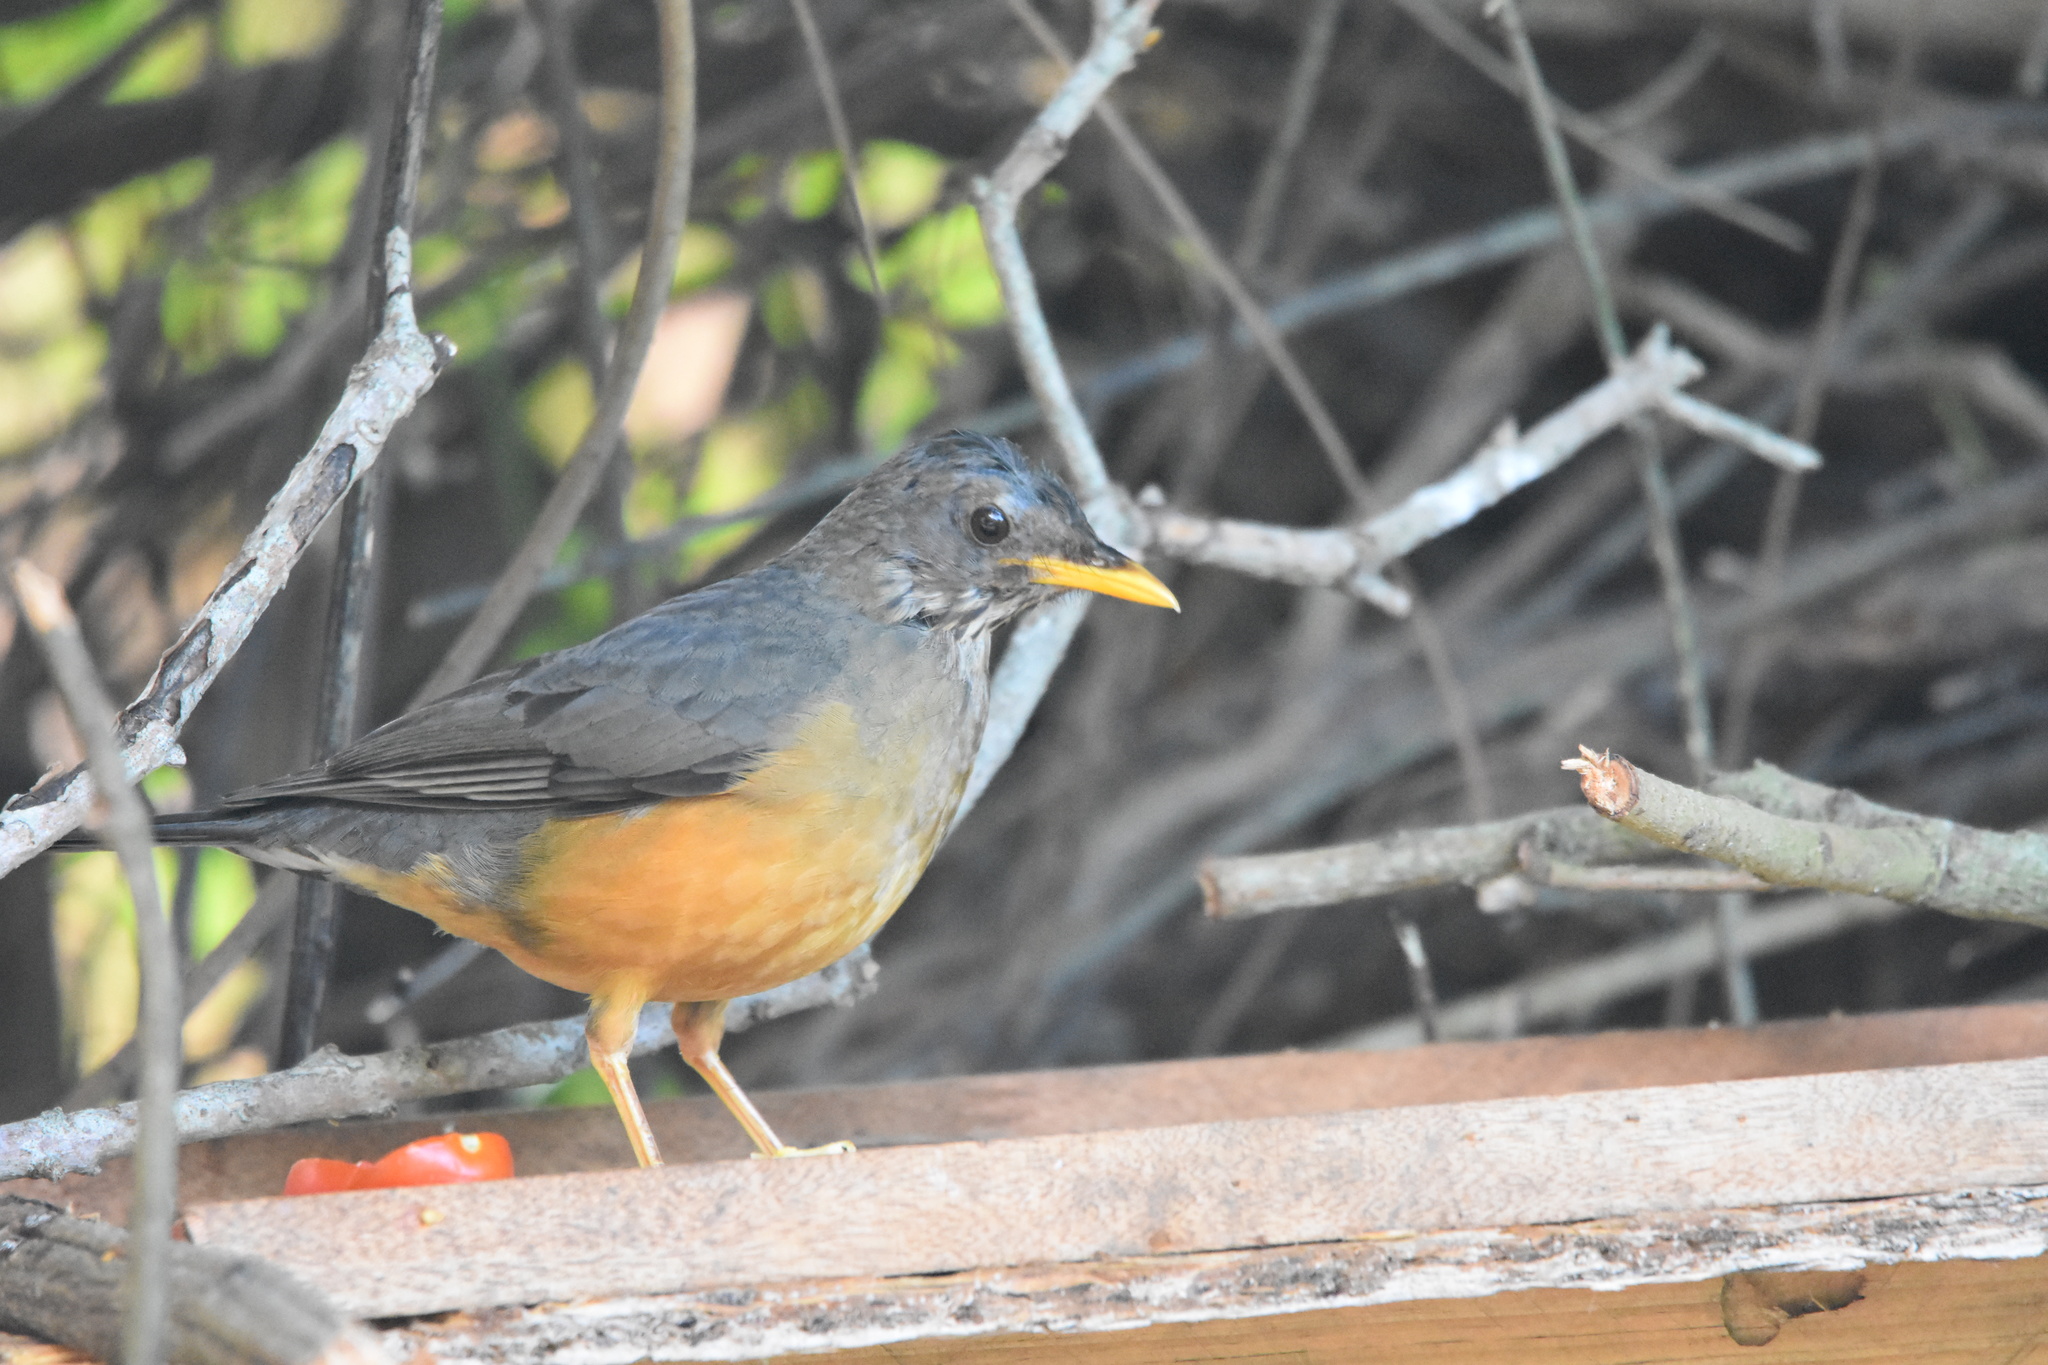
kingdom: Animalia
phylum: Chordata
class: Aves
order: Passeriformes
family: Turdidae
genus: Turdus
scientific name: Turdus olivaceus
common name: Olive thrush
